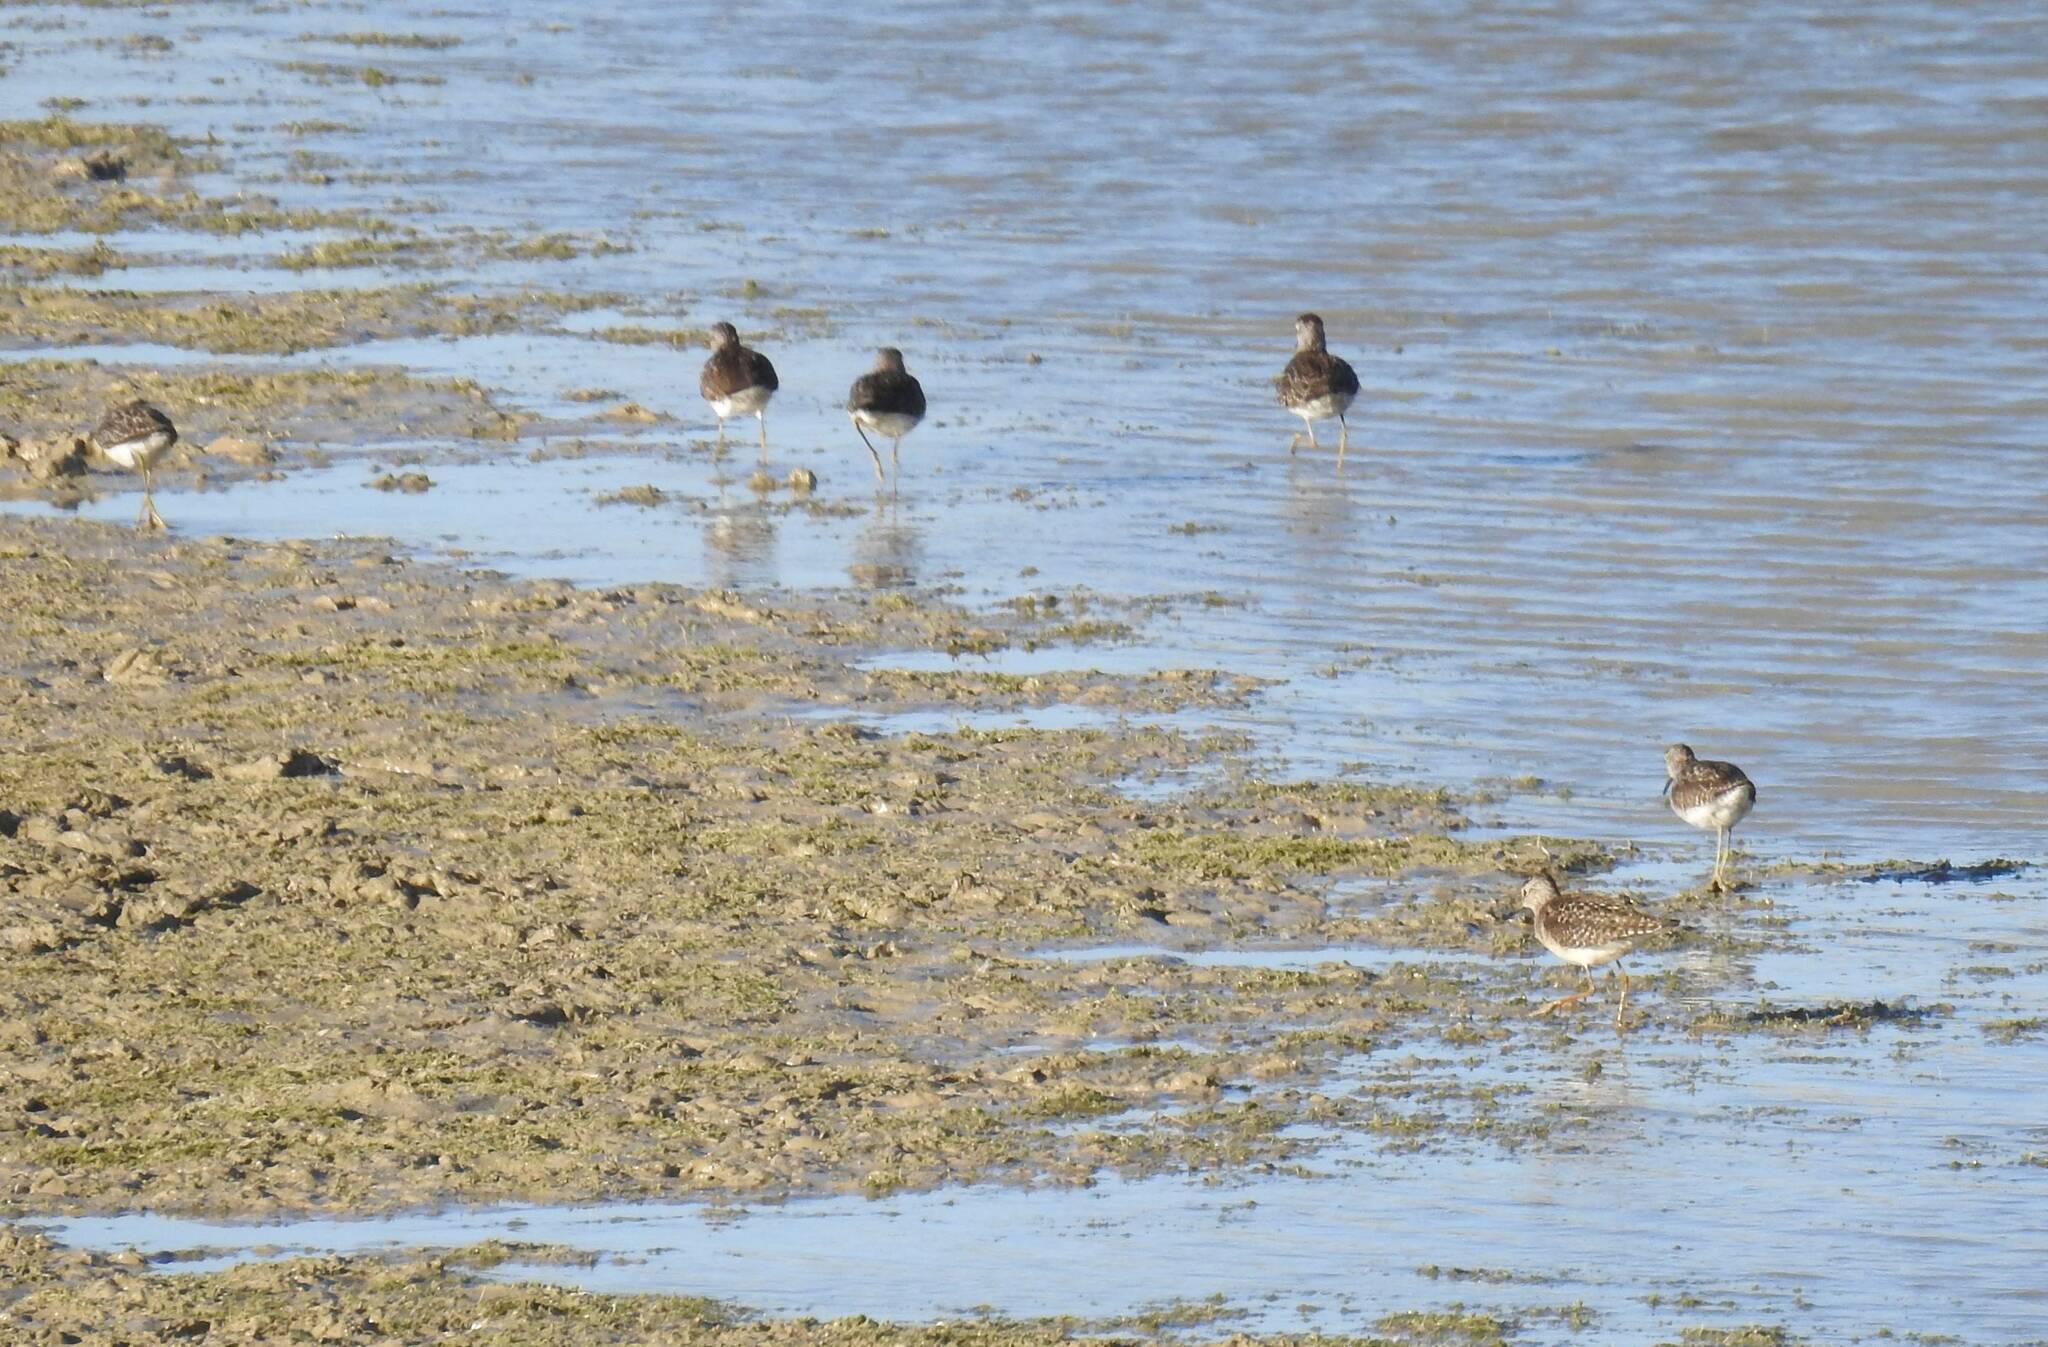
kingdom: Animalia
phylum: Chordata
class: Aves
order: Charadriiformes
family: Scolopacidae
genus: Tringa
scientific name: Tringa glareola
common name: Wood sandpiper
